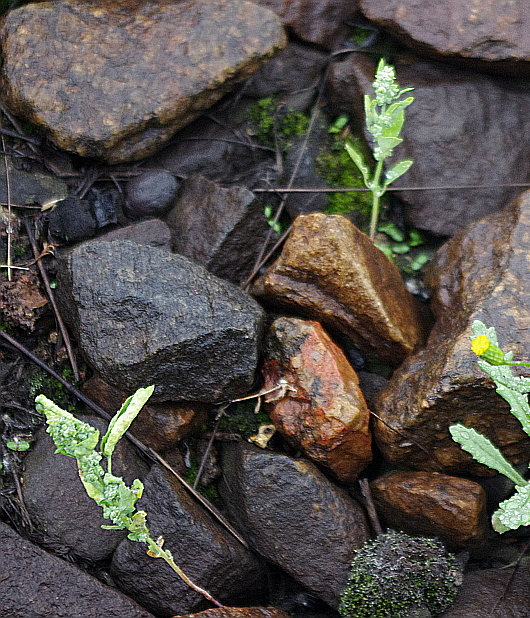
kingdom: Plantae
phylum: Tracheophyta
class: Magnoliopsida
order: Caryophyllales
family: Amaranthaceae
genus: Chenopodium
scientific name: Chenopodium album
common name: Fat-hen
